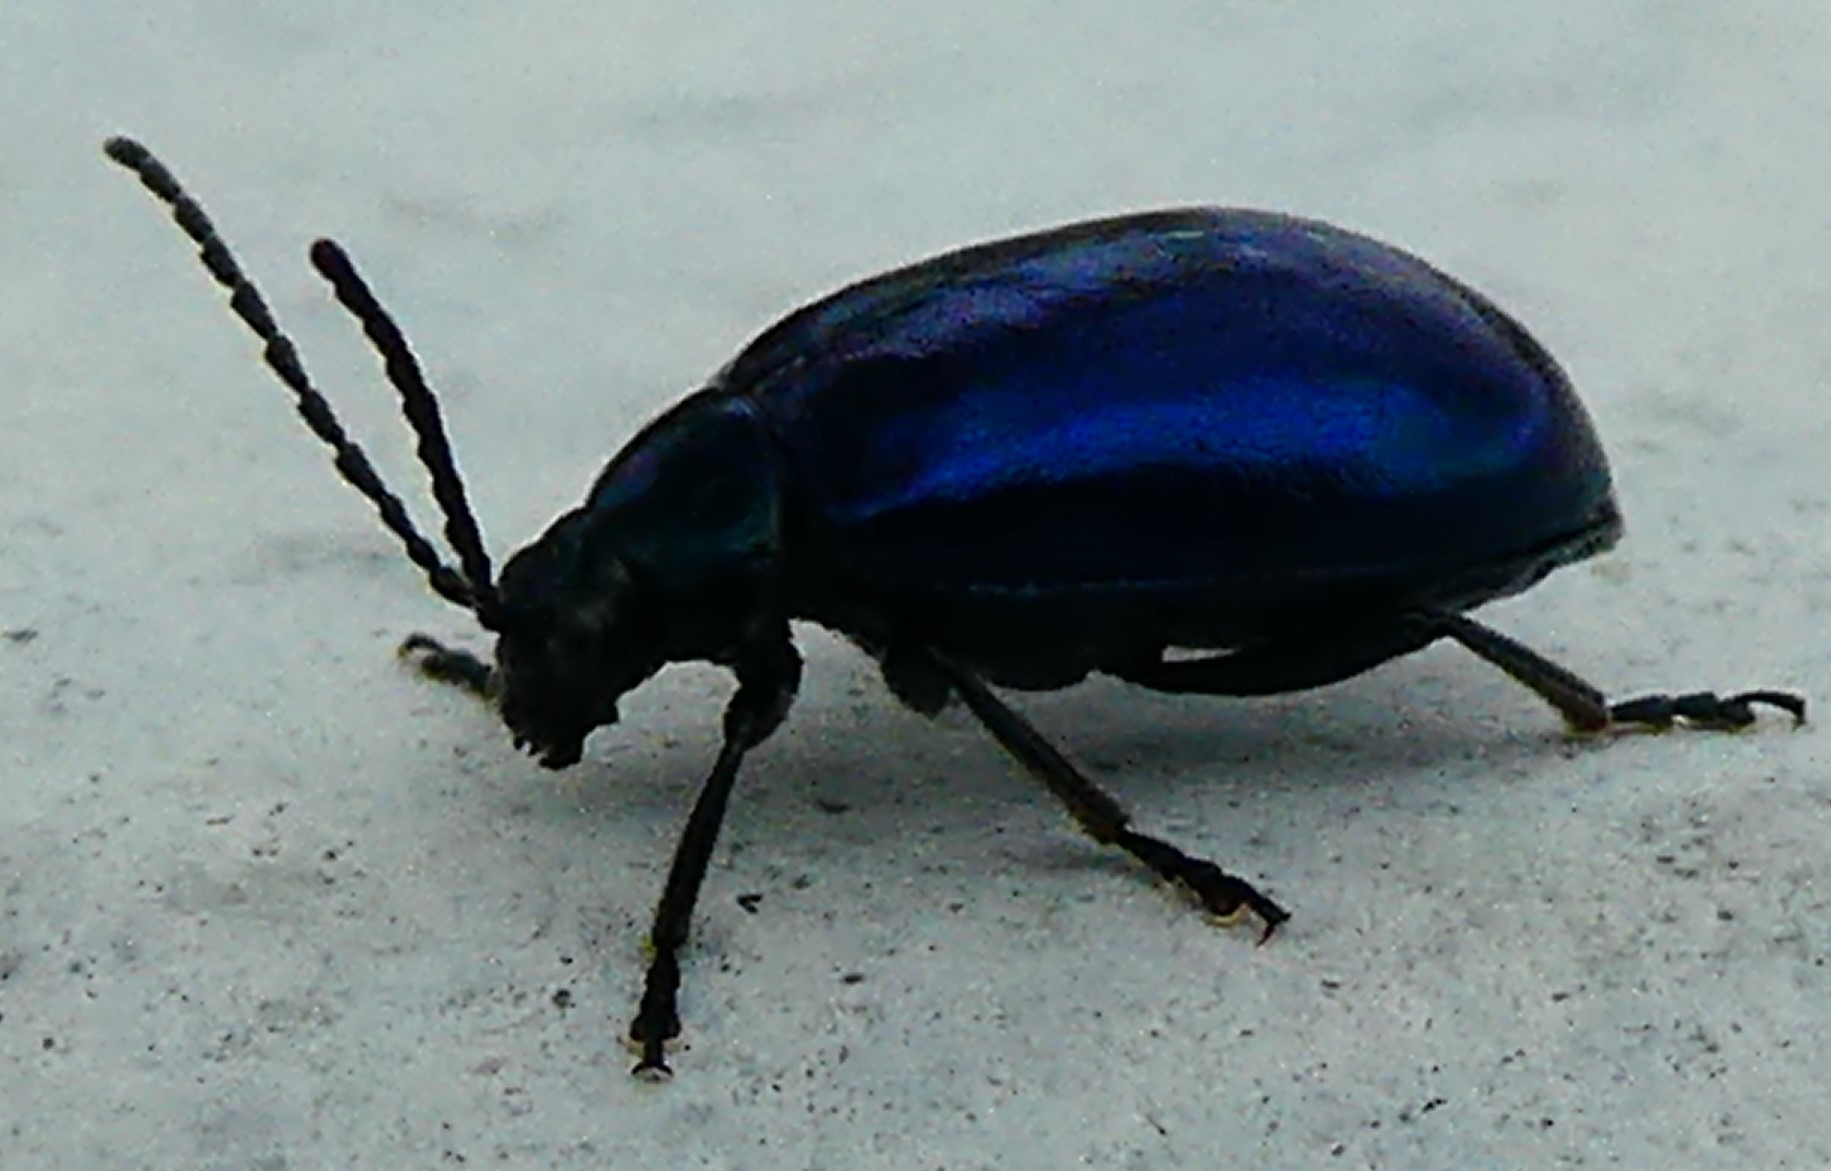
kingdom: Animalia
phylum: Arthropoda
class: Insecta
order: Coleoptera
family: Chrysomelidae
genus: Agelastica
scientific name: Agelastica alni
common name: Alder leaf beetle
